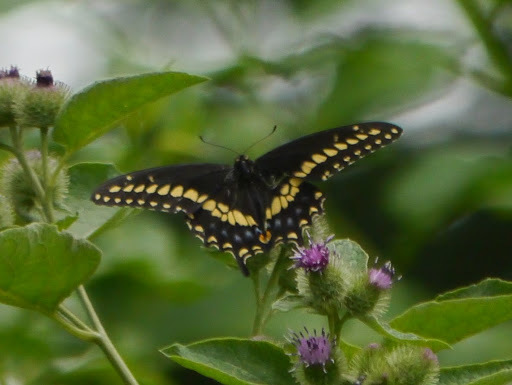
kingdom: Animalia
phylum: Arthropoda
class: Insecta
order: Lepidoptera
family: Papilionidae
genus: Papilio
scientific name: Papilio polyxenes
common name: Black swallowtail
